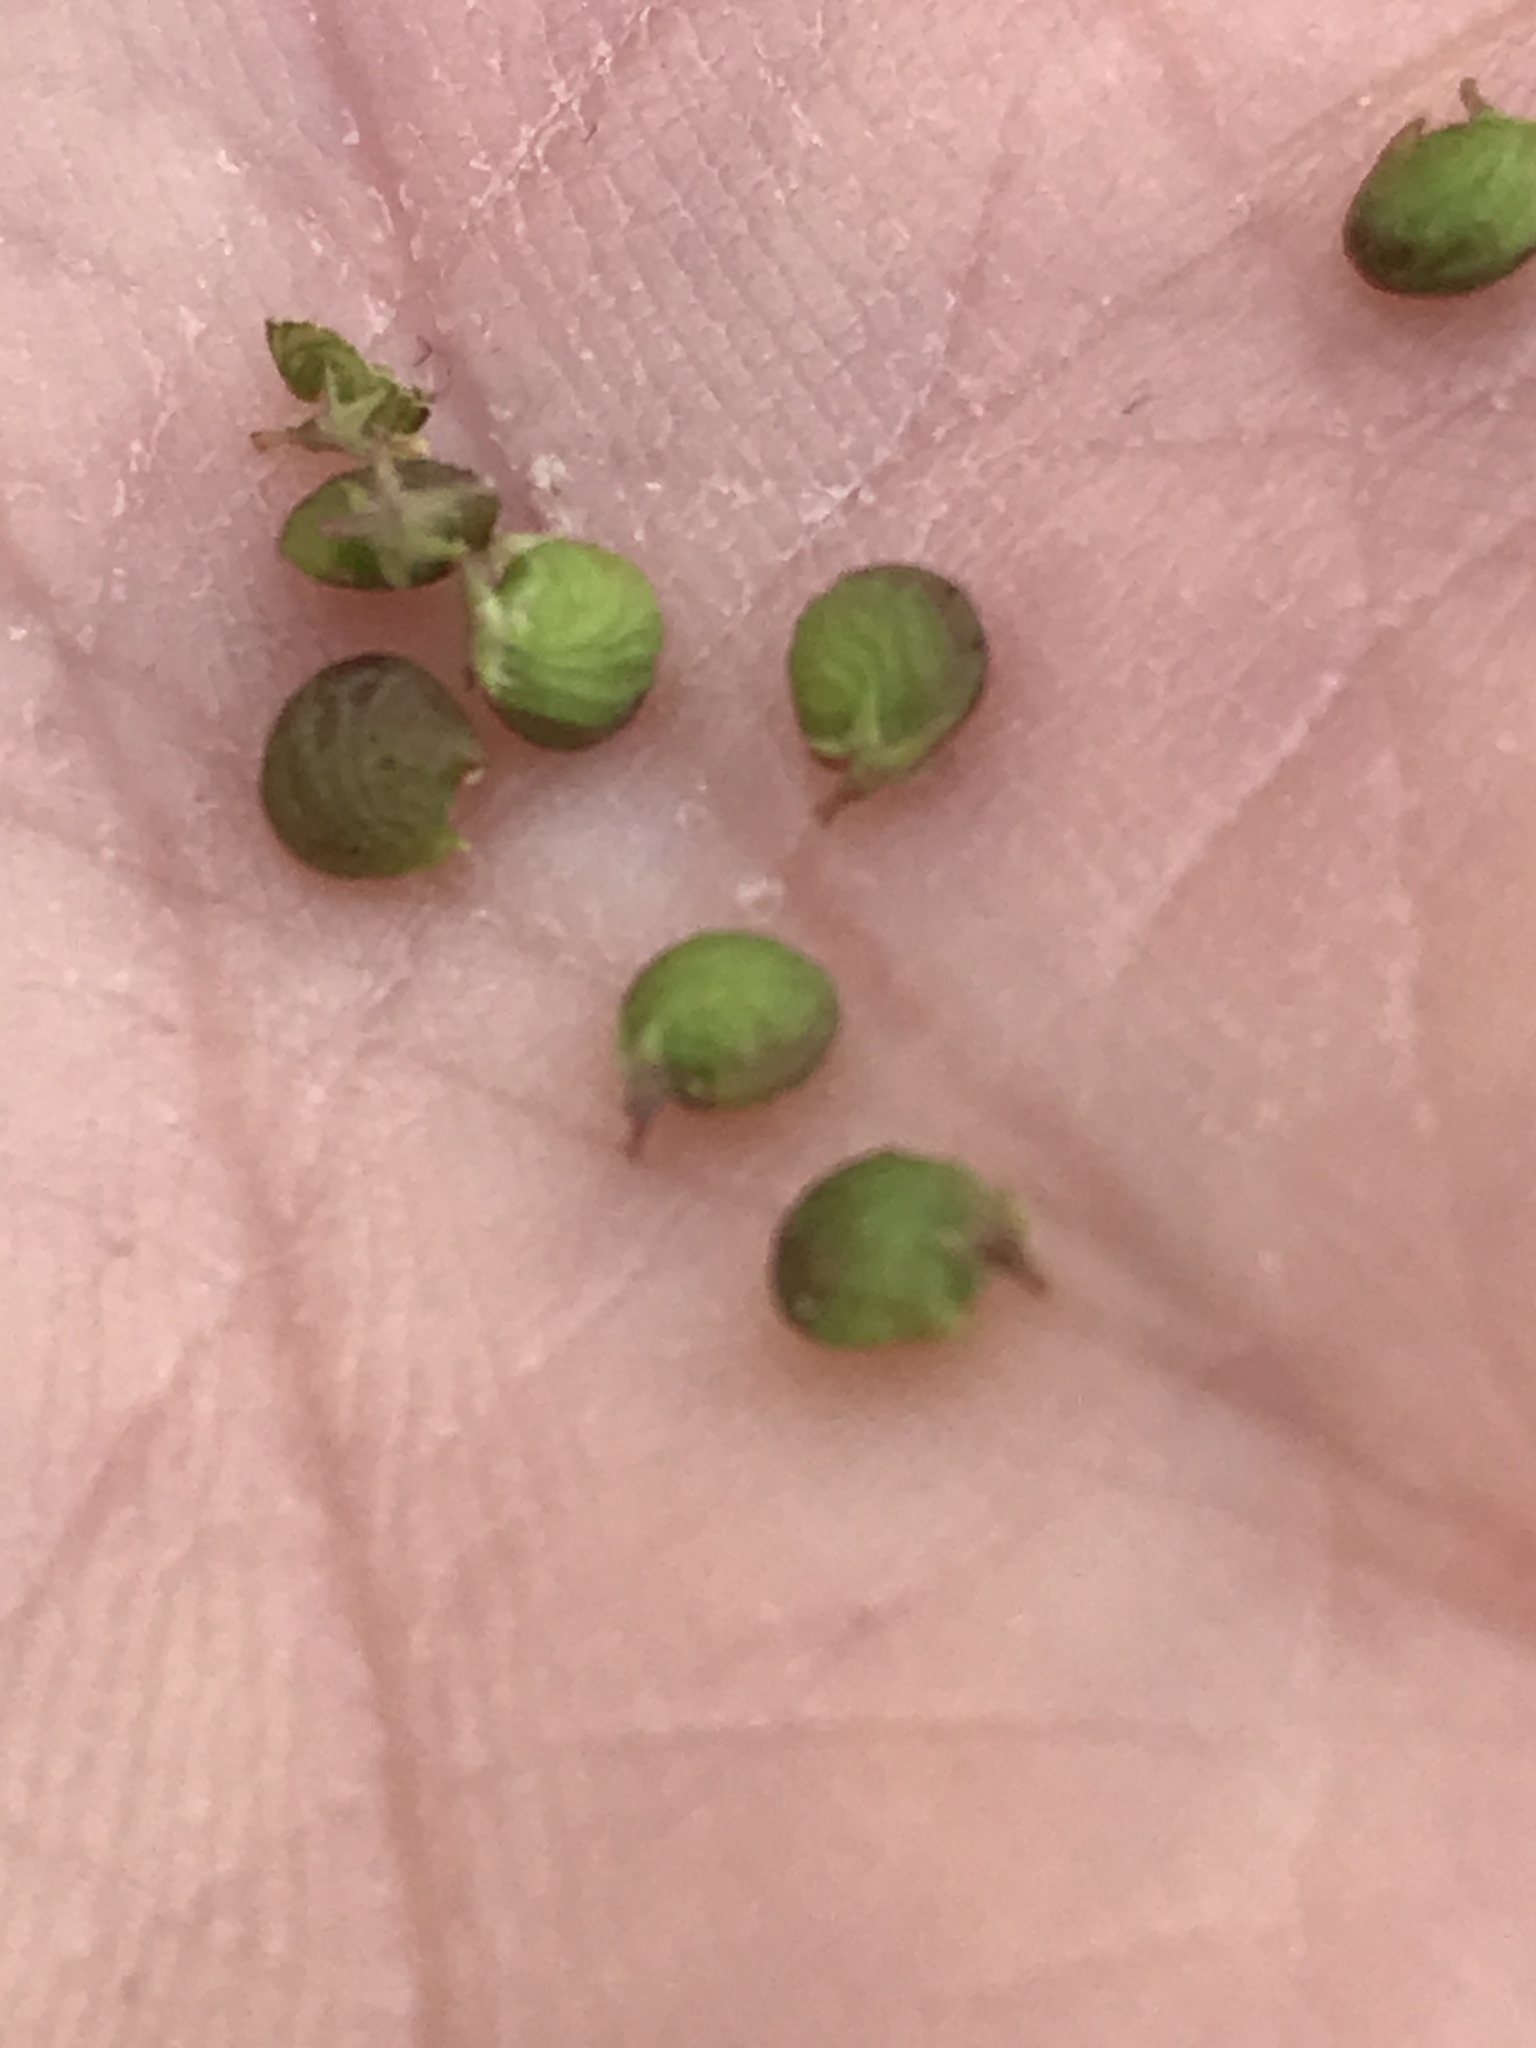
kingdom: Plantae
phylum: Tracheophyta
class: Magnoliopsida
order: Fabales
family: Fabaceae
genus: Medicago
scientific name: Medicago lupulina
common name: Black medick
